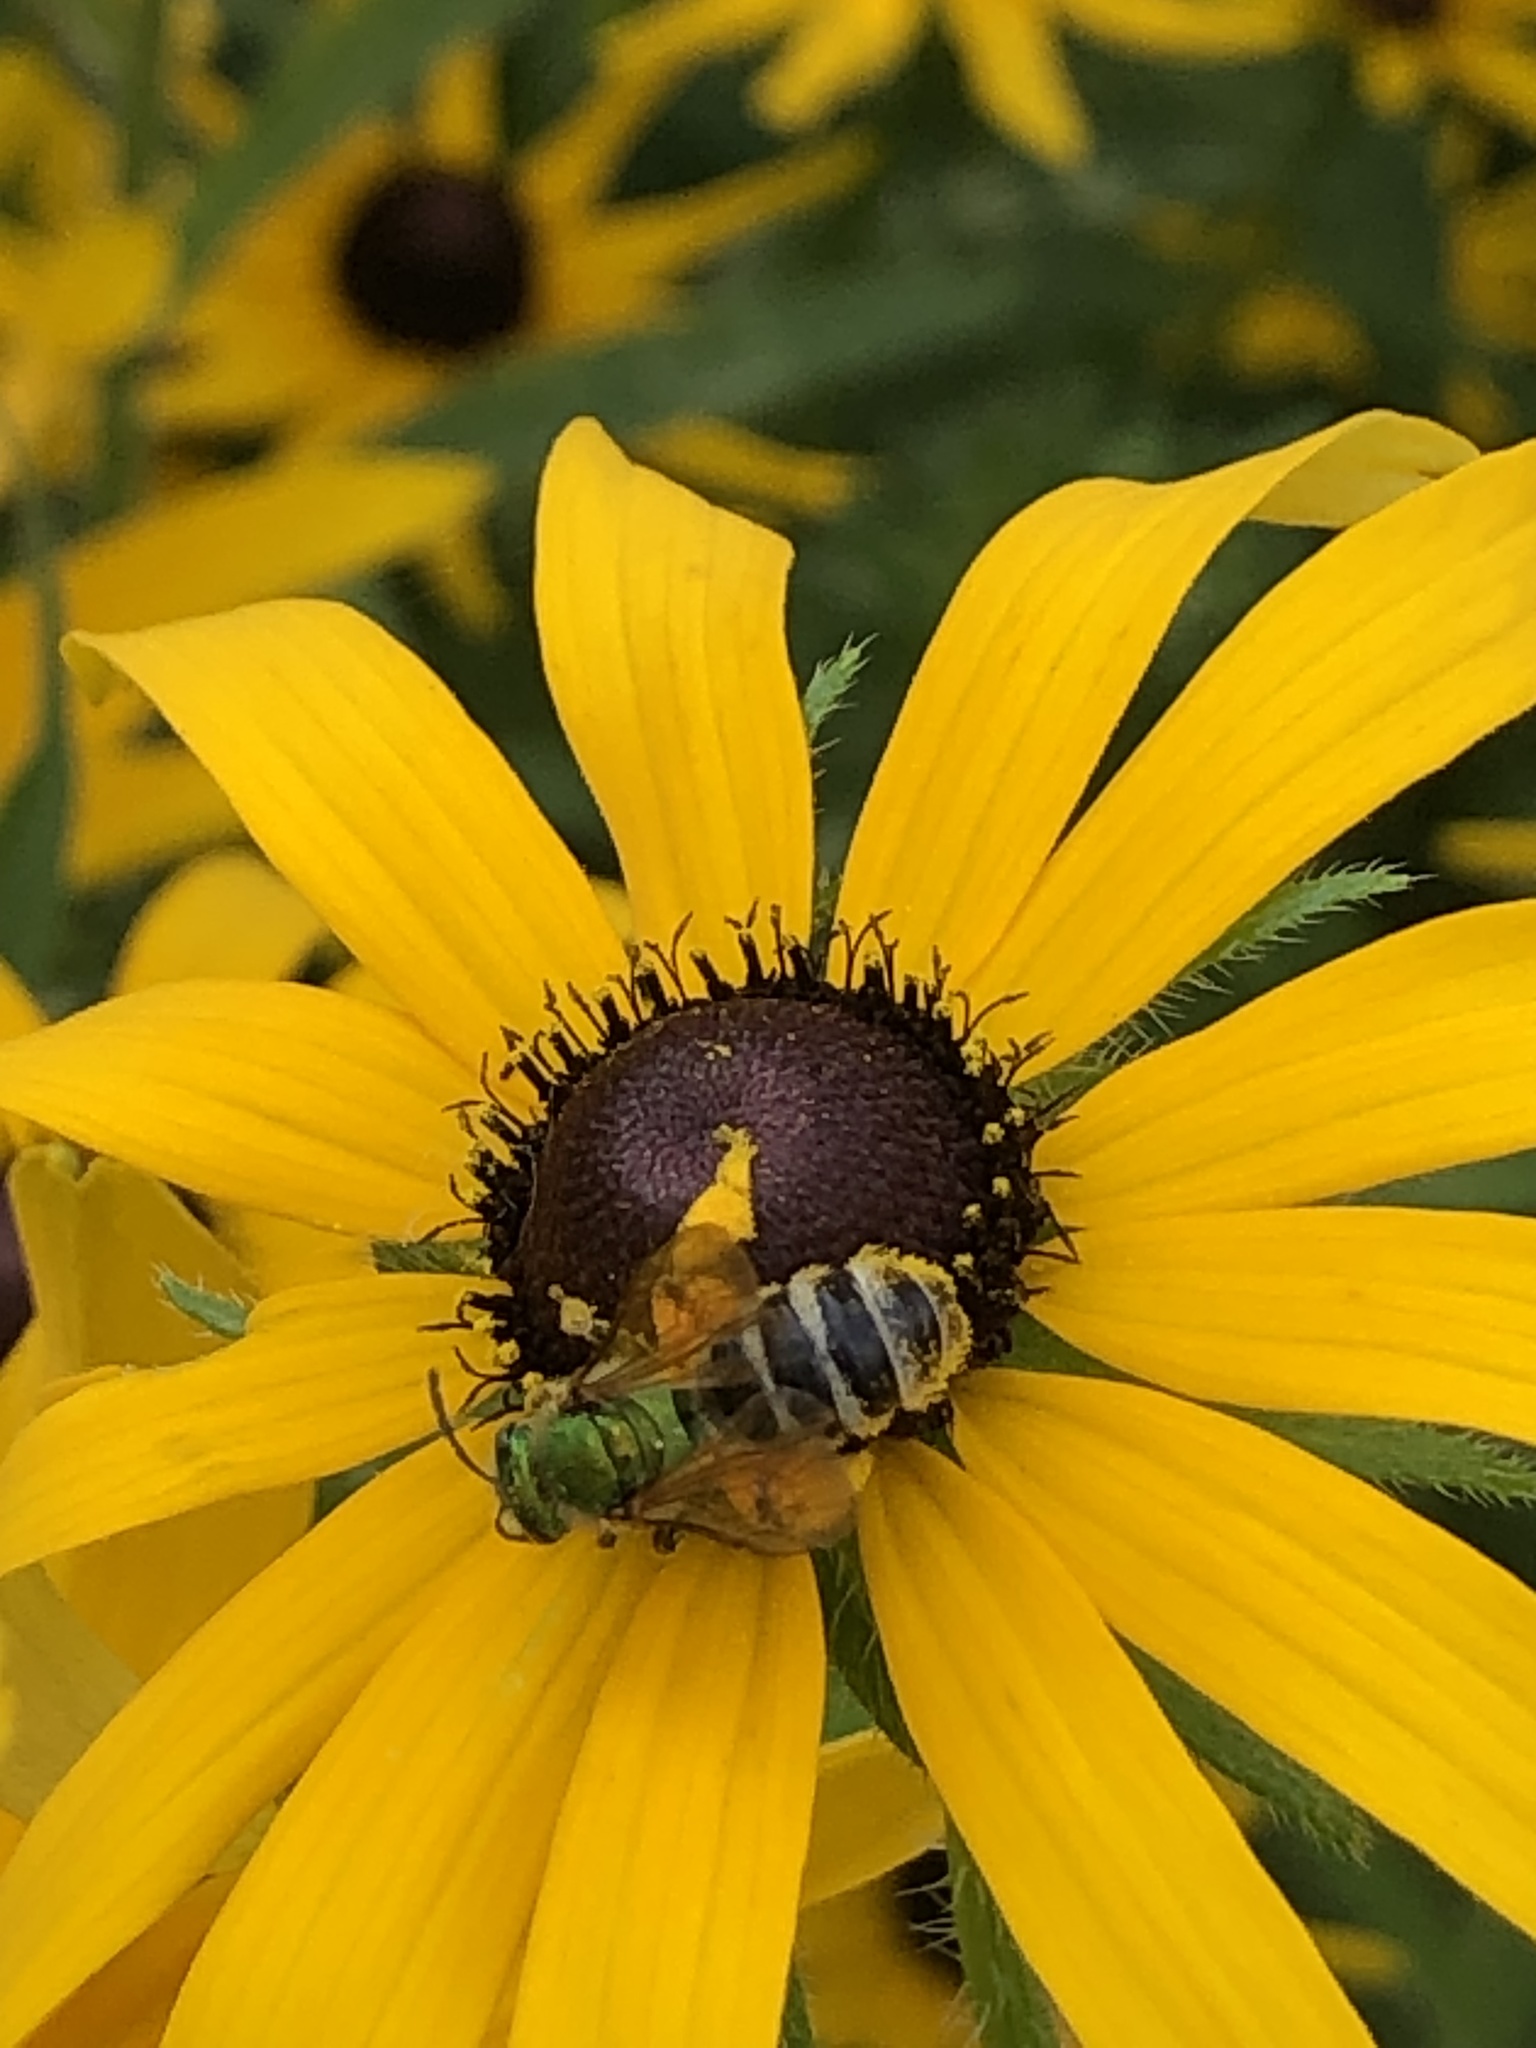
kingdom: Animalia
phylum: Arthropoda
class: Insecta
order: Hymenoptera
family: Halictidae
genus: Agapostemon
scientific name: Agapostemon virescens
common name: Bicolored striped sweat bee
